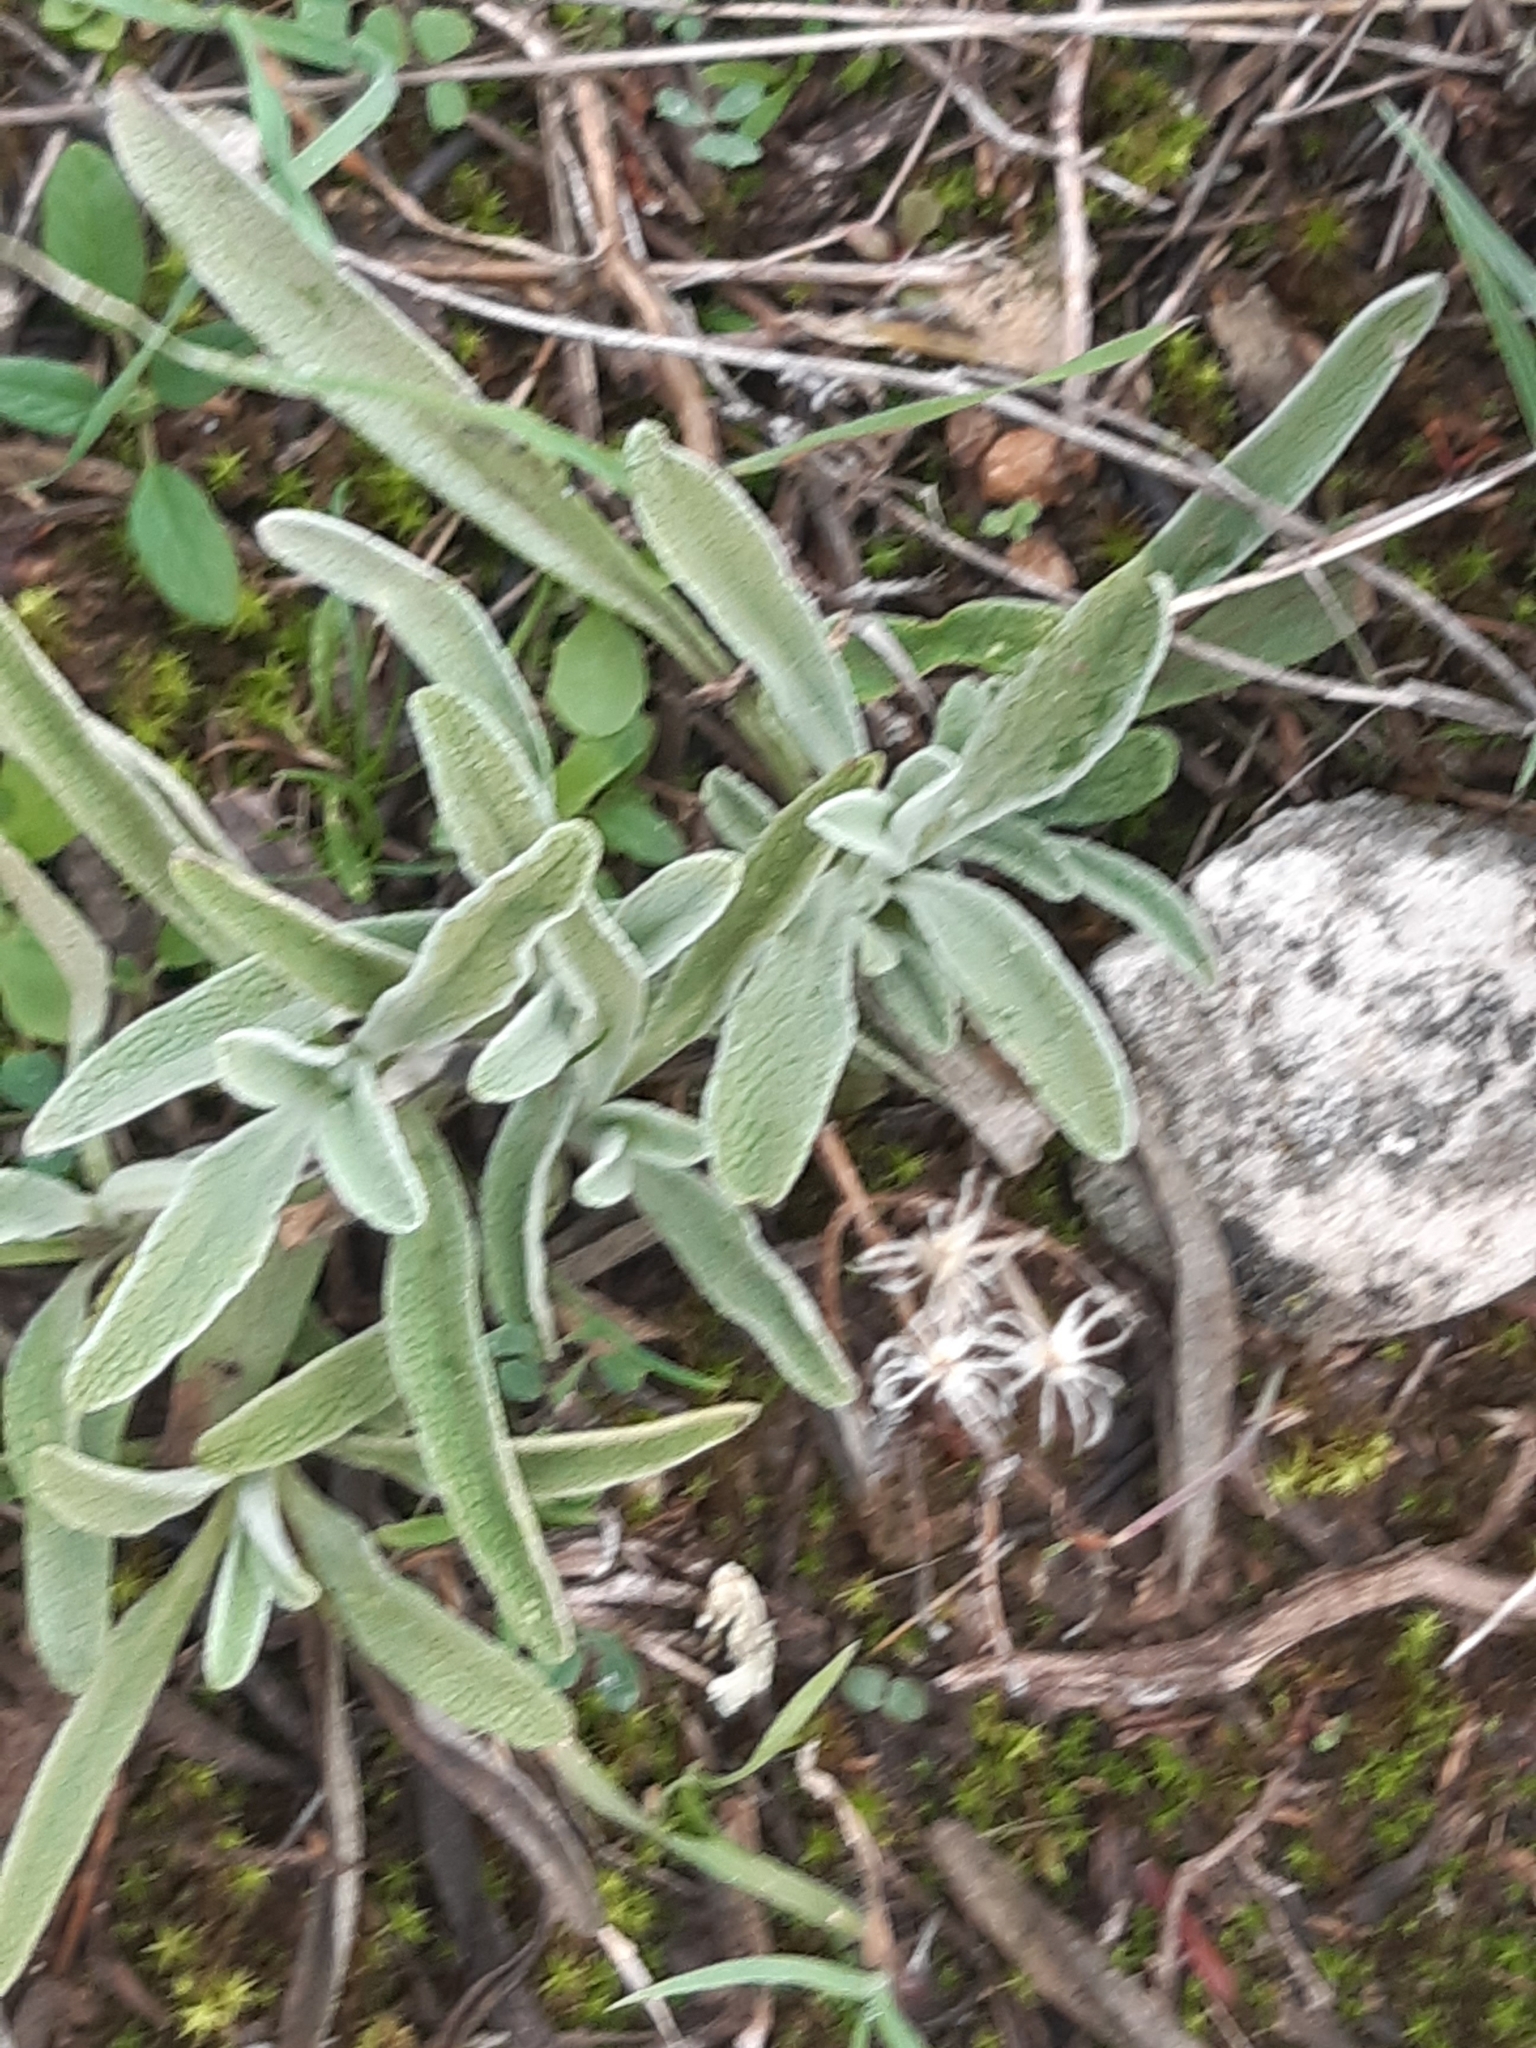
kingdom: Plantae
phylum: Tracheophyta
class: Magnoliopsida
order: Lamiales
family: Lamiaceae
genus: Phlomis
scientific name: Phlomis lychnitis
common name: Lampwickplant
